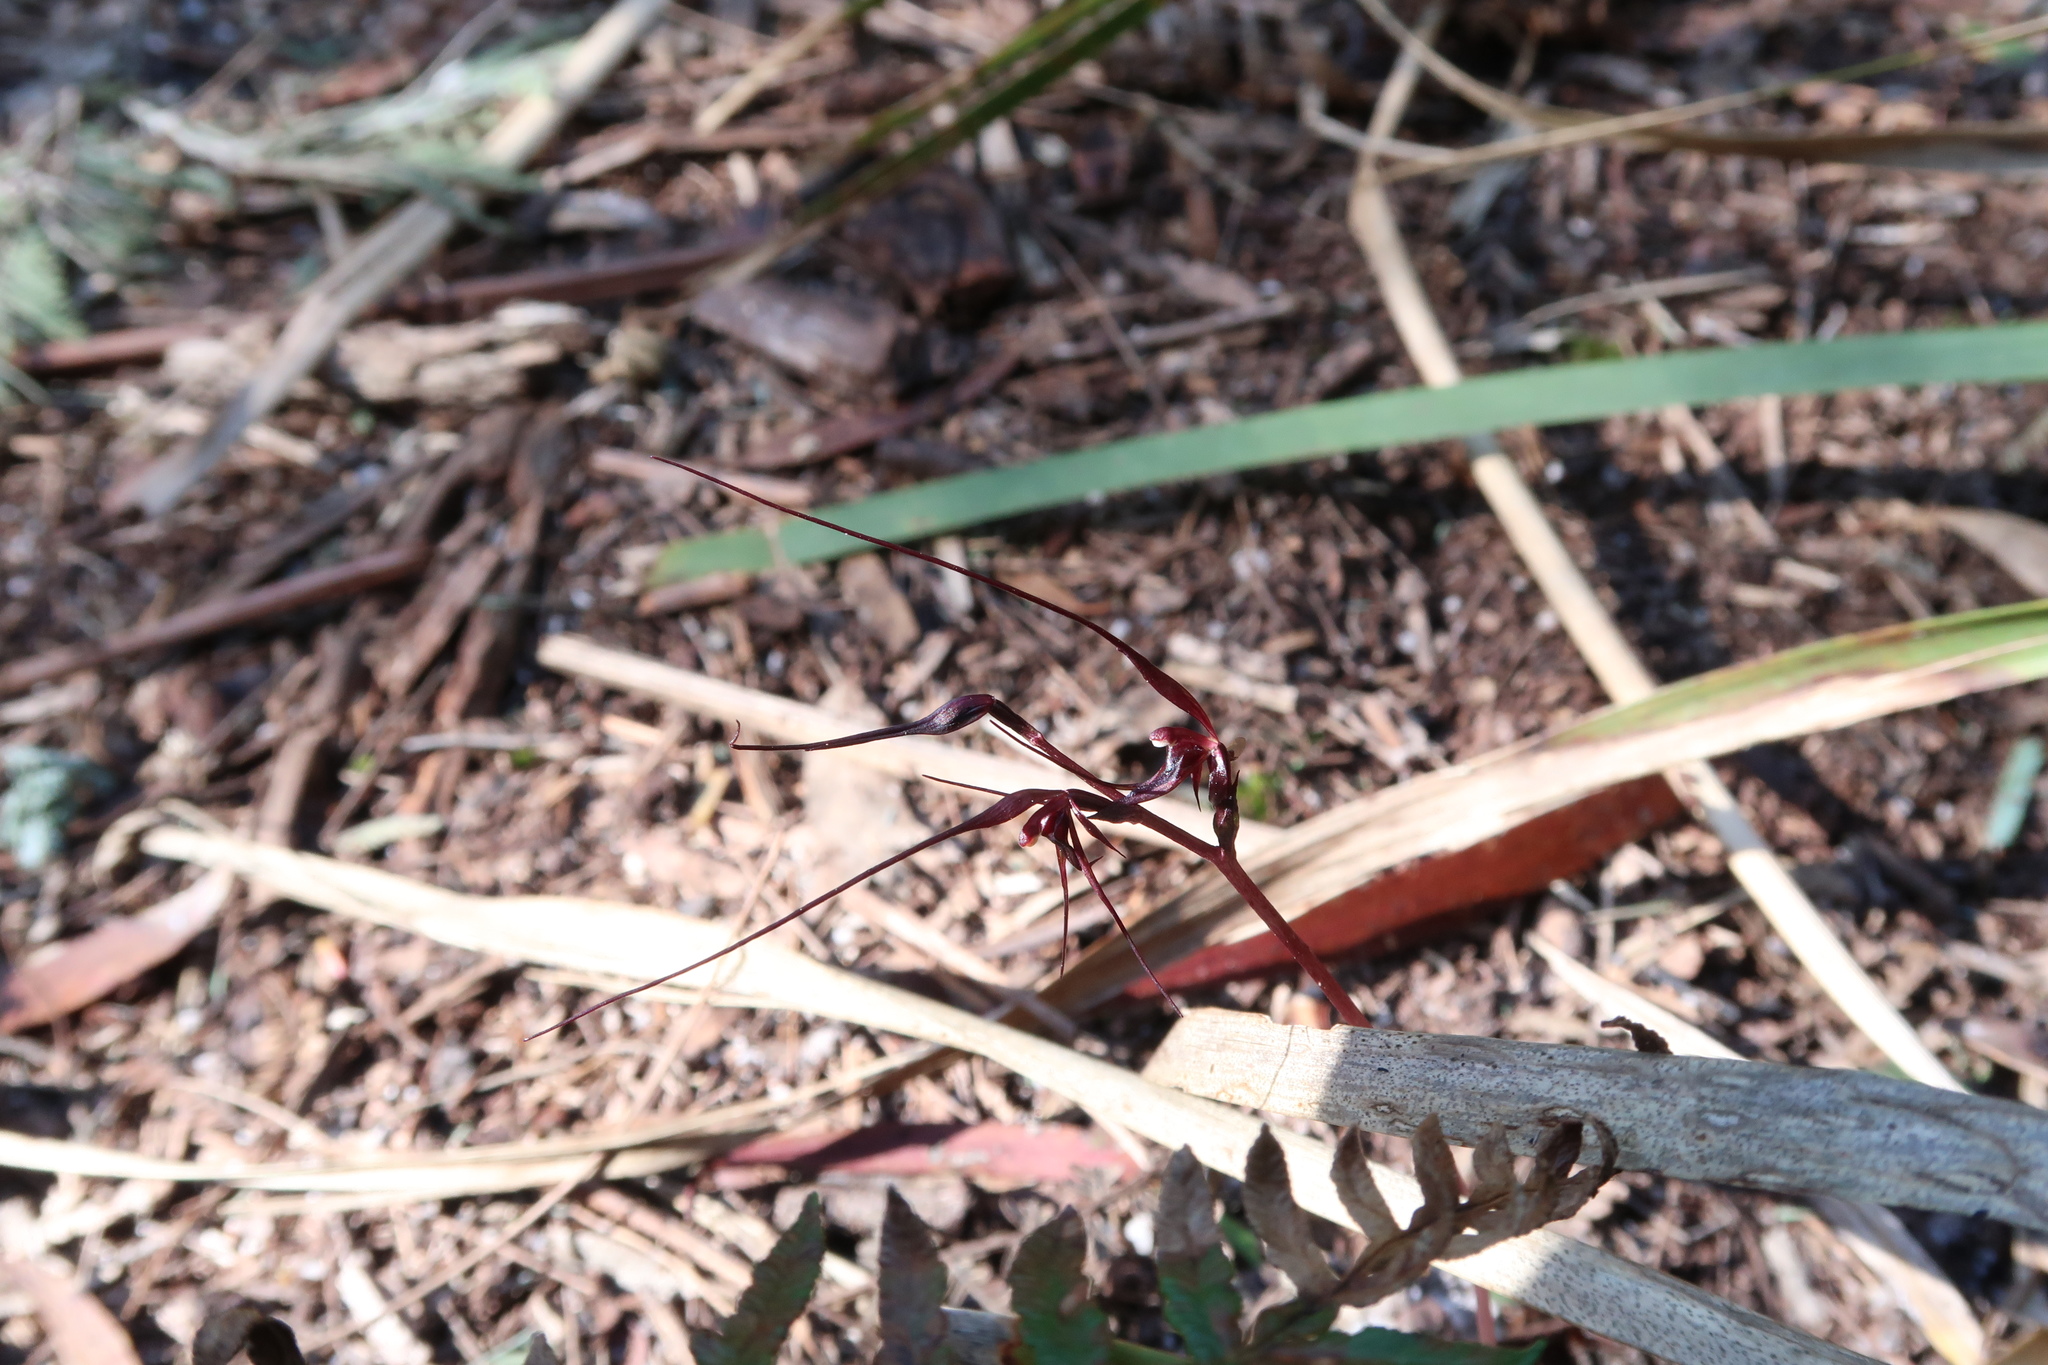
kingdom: Plantae
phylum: Tracheophyta
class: Liliopsida
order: Asparagales
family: Orchidaceae
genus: Acianthus
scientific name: Acianthus caudatus
